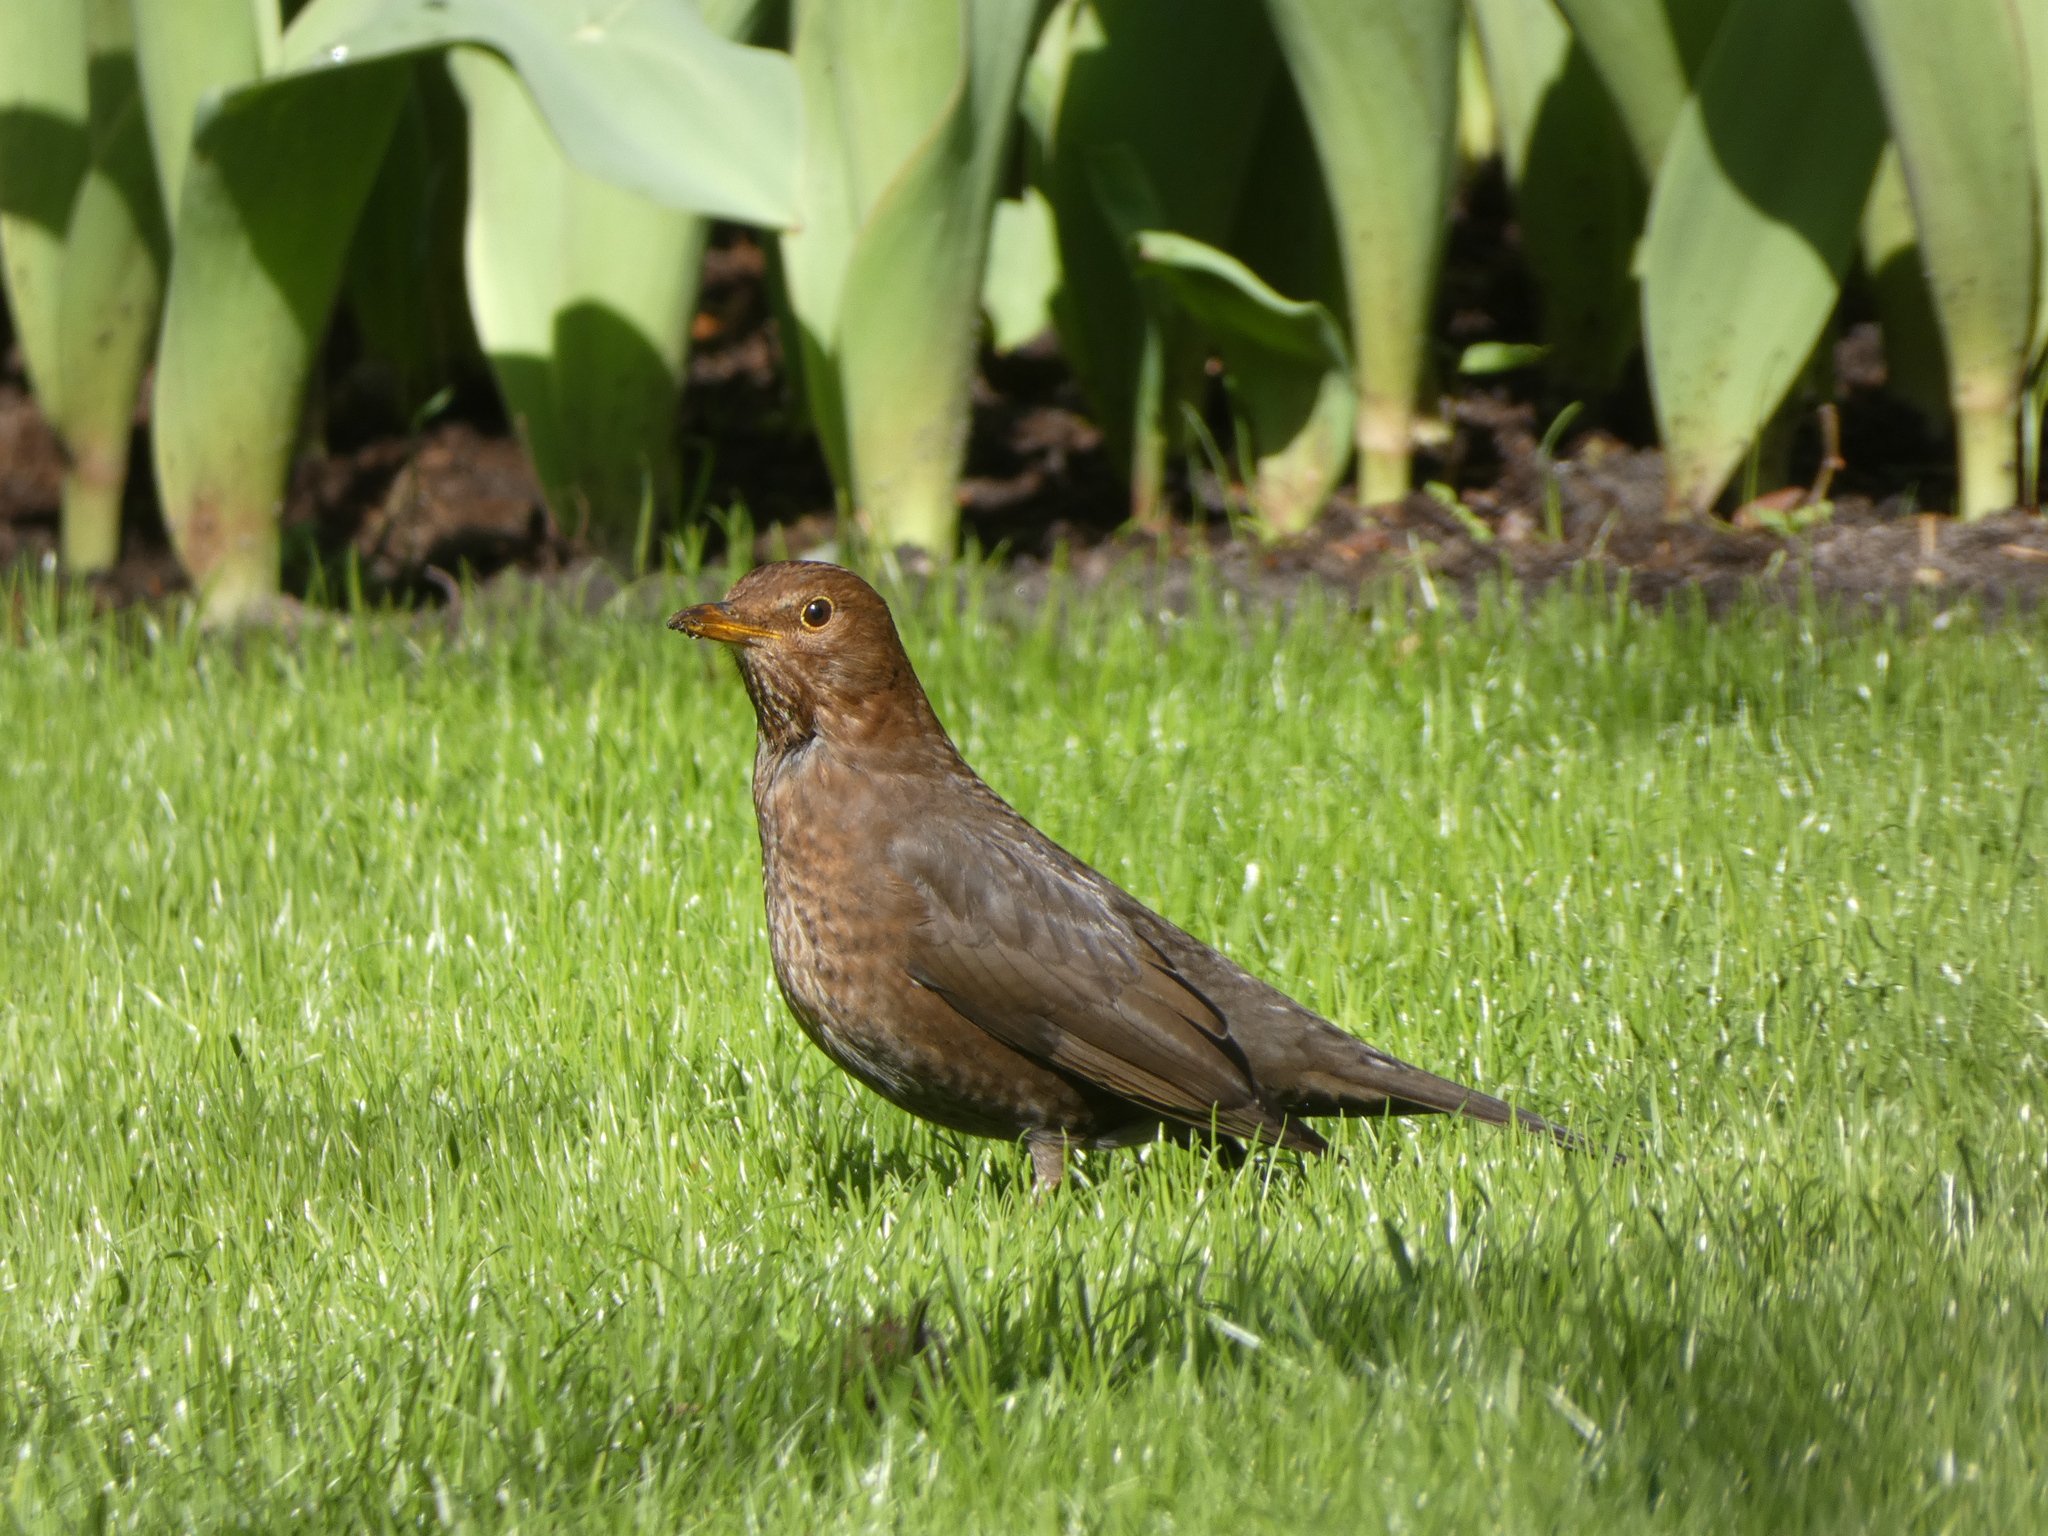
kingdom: Animalia
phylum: Chordata
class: Aves
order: Passeriformes
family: Turdidae
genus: Turdus
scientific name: Turdus merula
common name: Common blackbird
